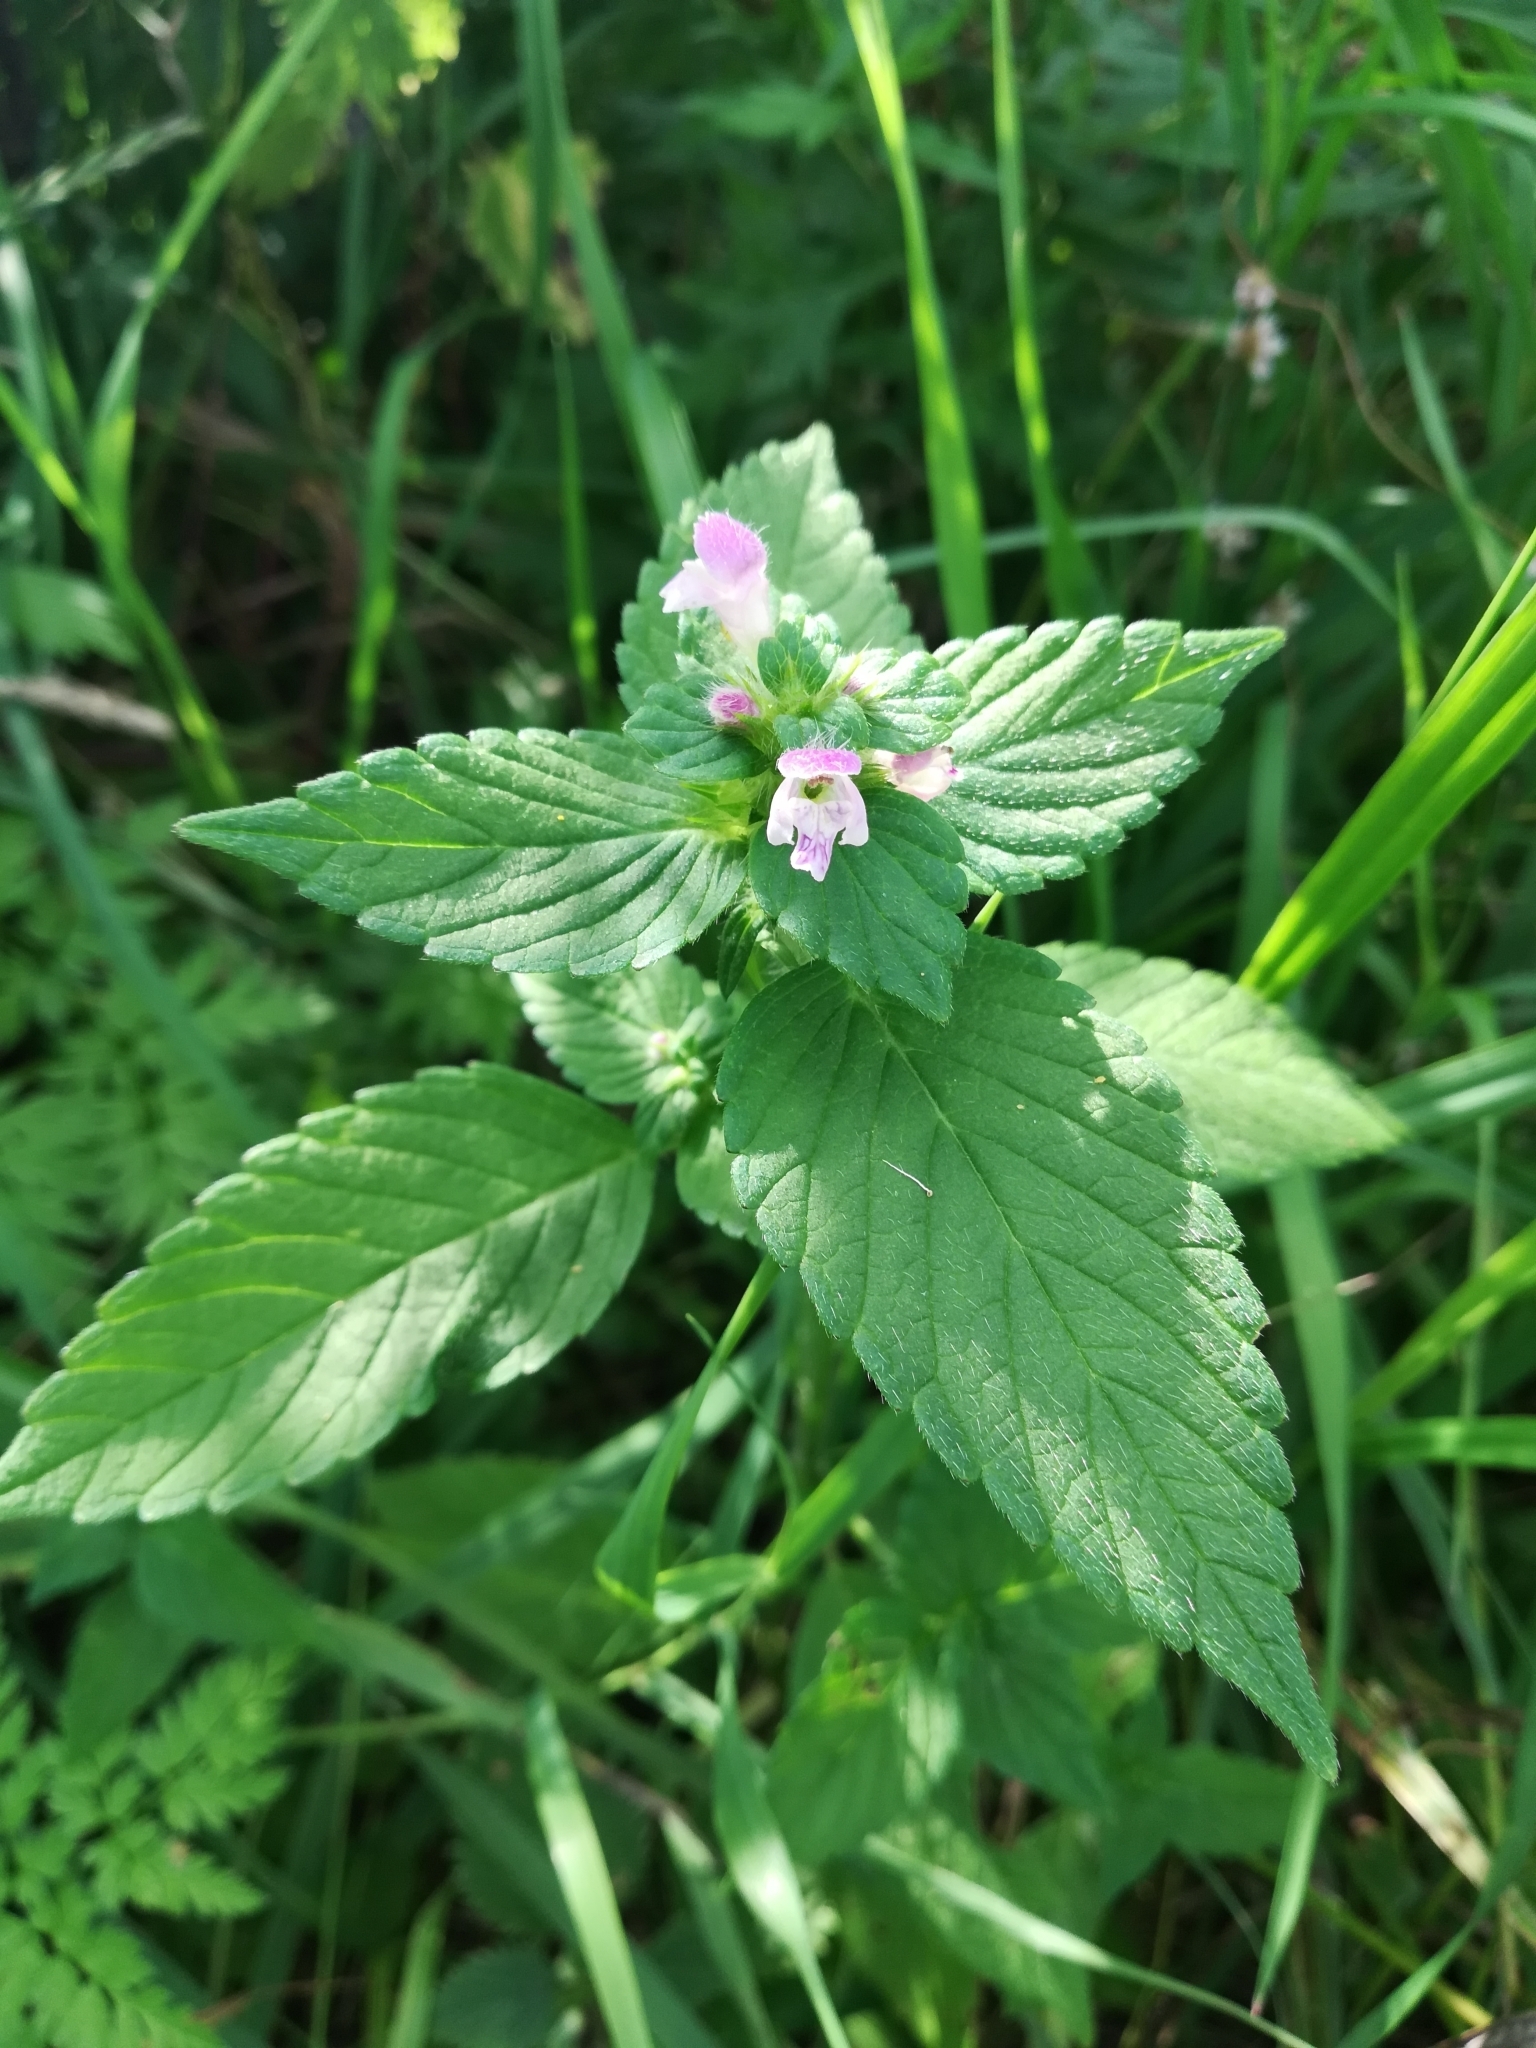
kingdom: Plantae
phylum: Tracheophyta
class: Magnoliopsida
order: Lamiales
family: Lamiaceae
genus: Galeopsis
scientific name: Galeopsis bifida
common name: Bifid hemp-nettle
